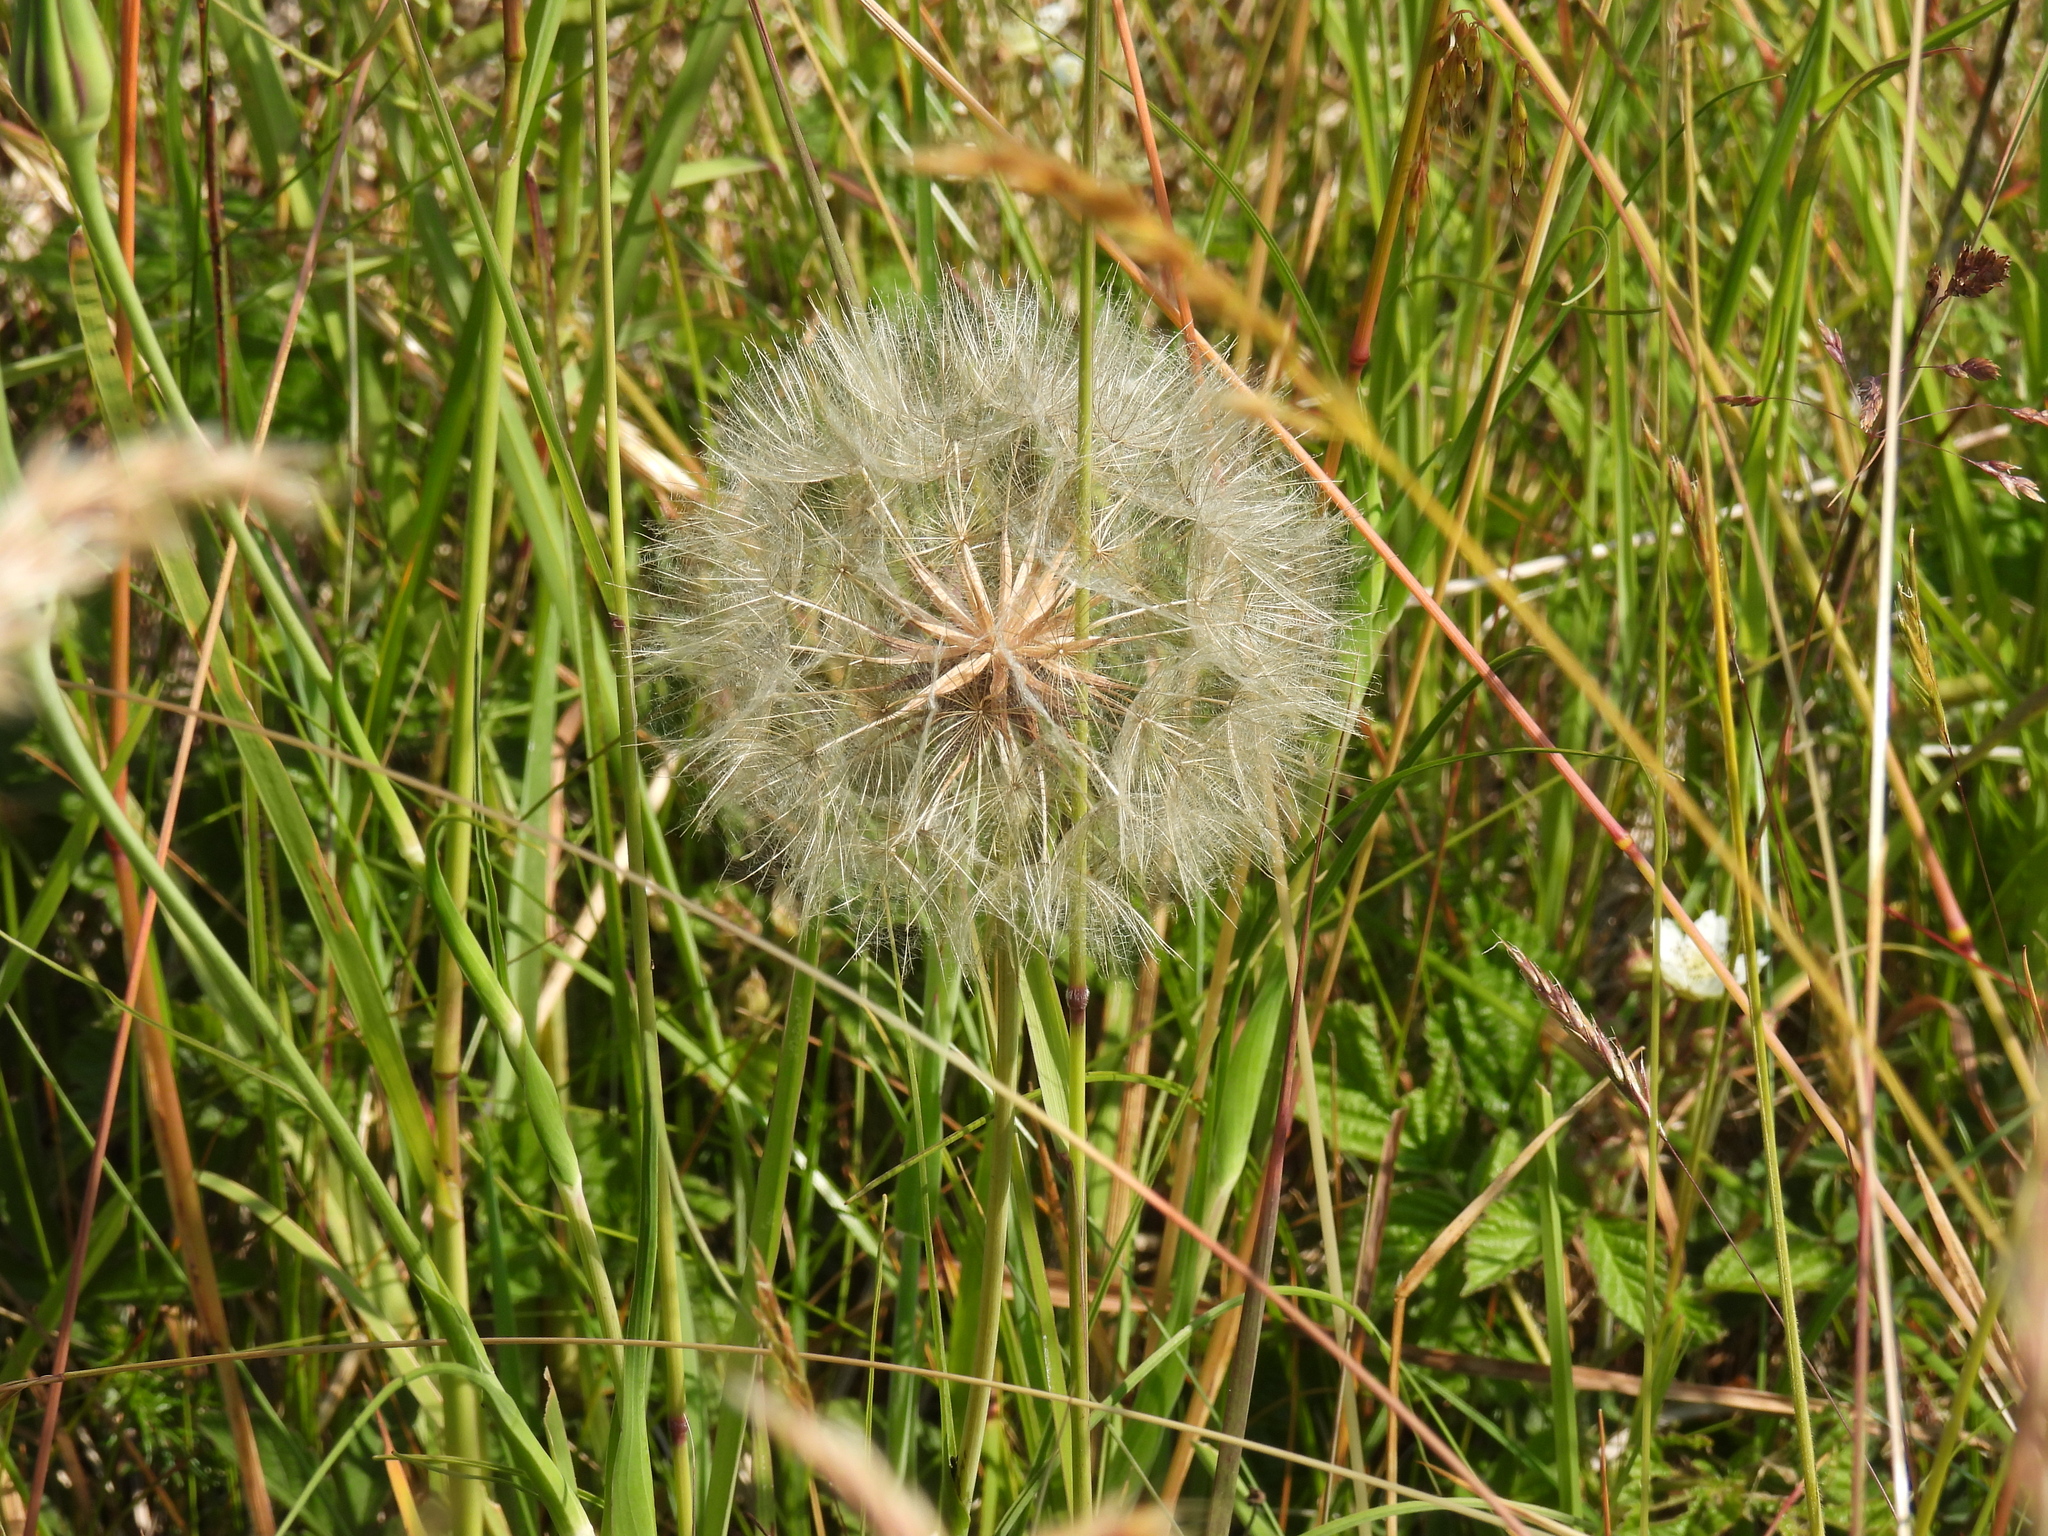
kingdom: Plantae
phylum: Tracheophyta
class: Magnoliopsida
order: Asterales
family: Asteraceae
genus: Tragopogon
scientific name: Tragopogon pratensis
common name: Goat's-beard
